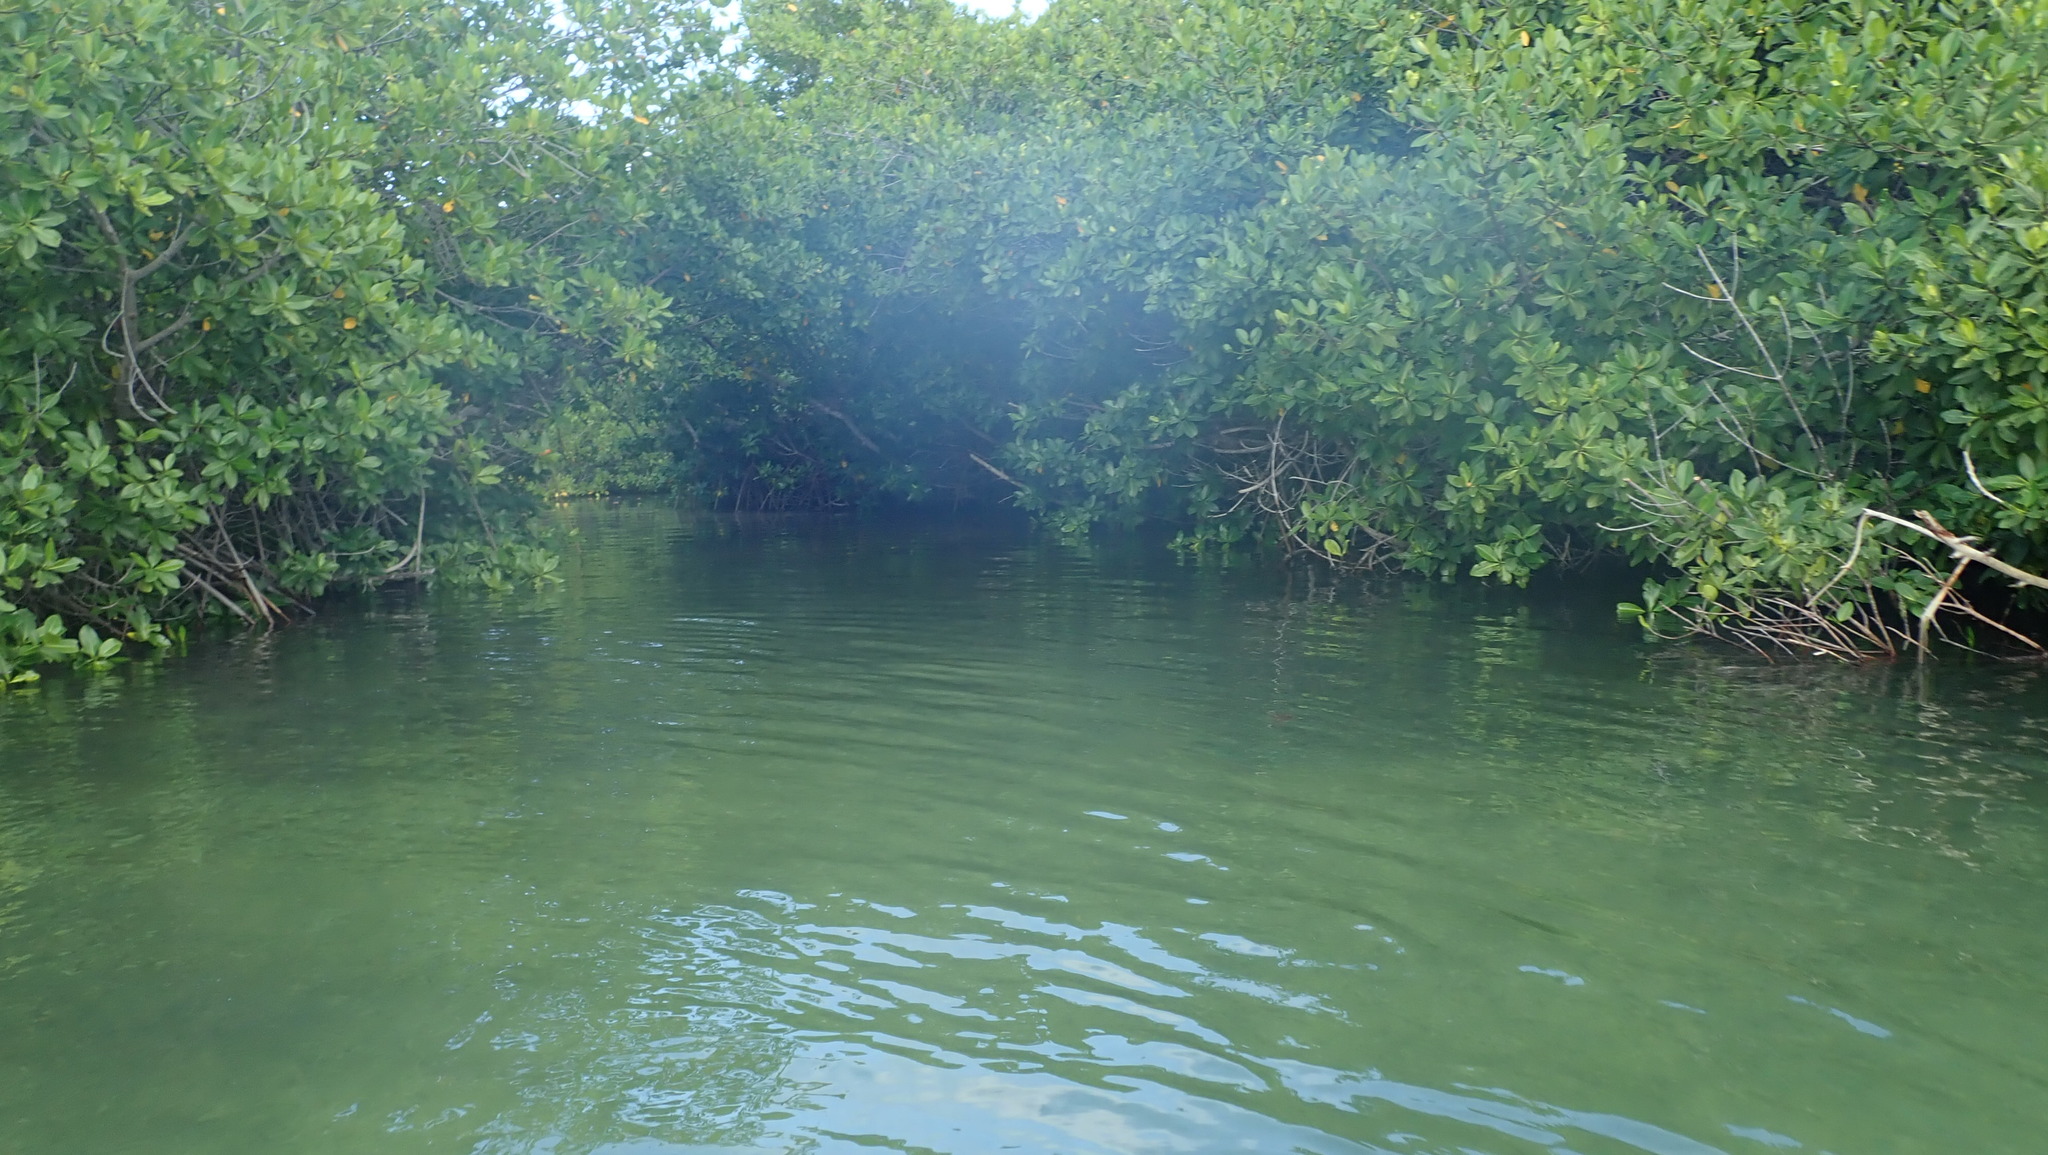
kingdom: Plantae
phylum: Tracheophyta
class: Magnoliopsida
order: Malpighiales
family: Rhizophoraceae
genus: Rhizophora
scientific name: Rhizophora mangle
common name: Red mangrove
